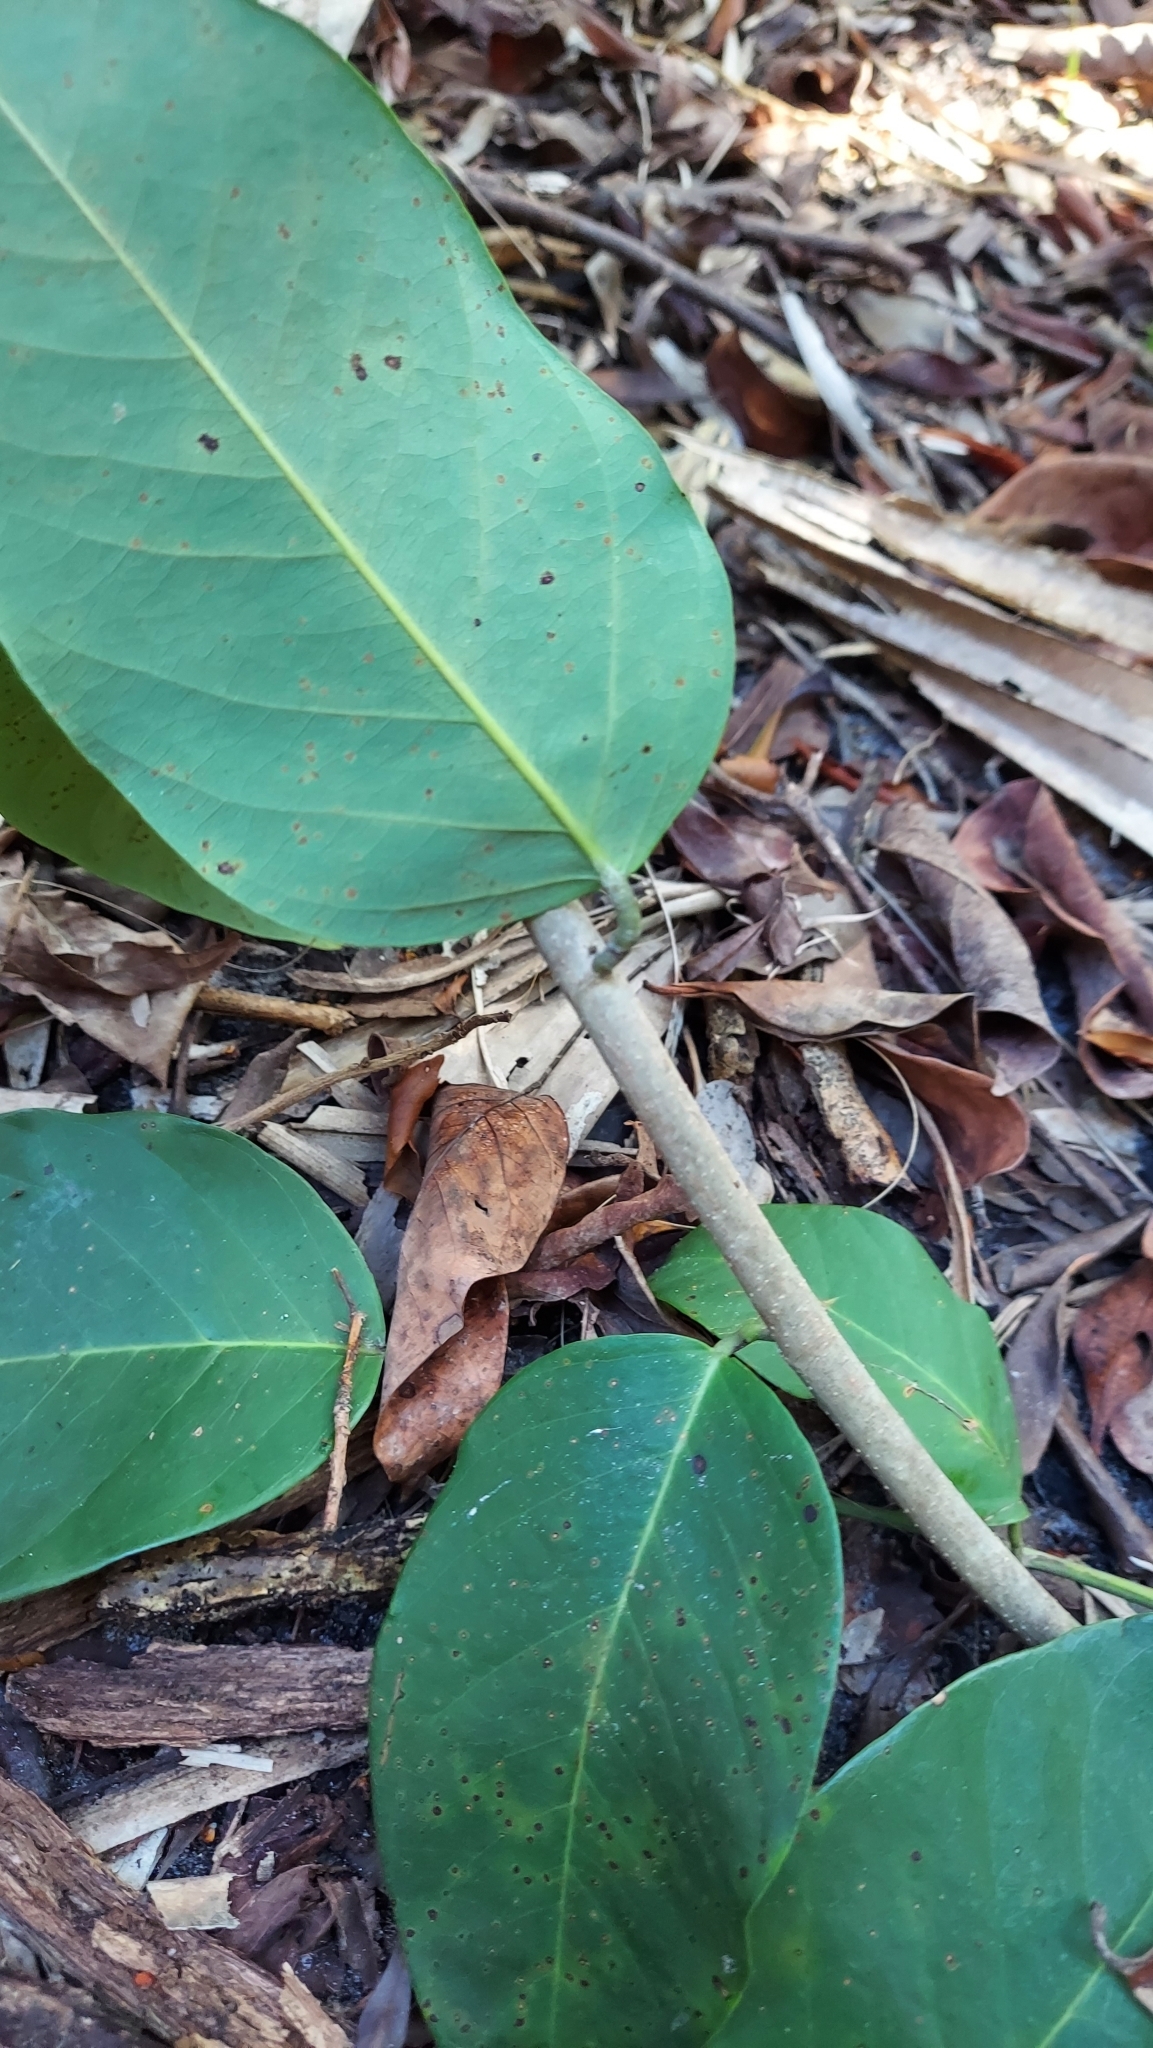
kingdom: Plantae
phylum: Tracheophyta
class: Magnoliopsida
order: Fabales
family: Fabaceae
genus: Dalbergia
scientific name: Dalbergia ecastaphyllum
